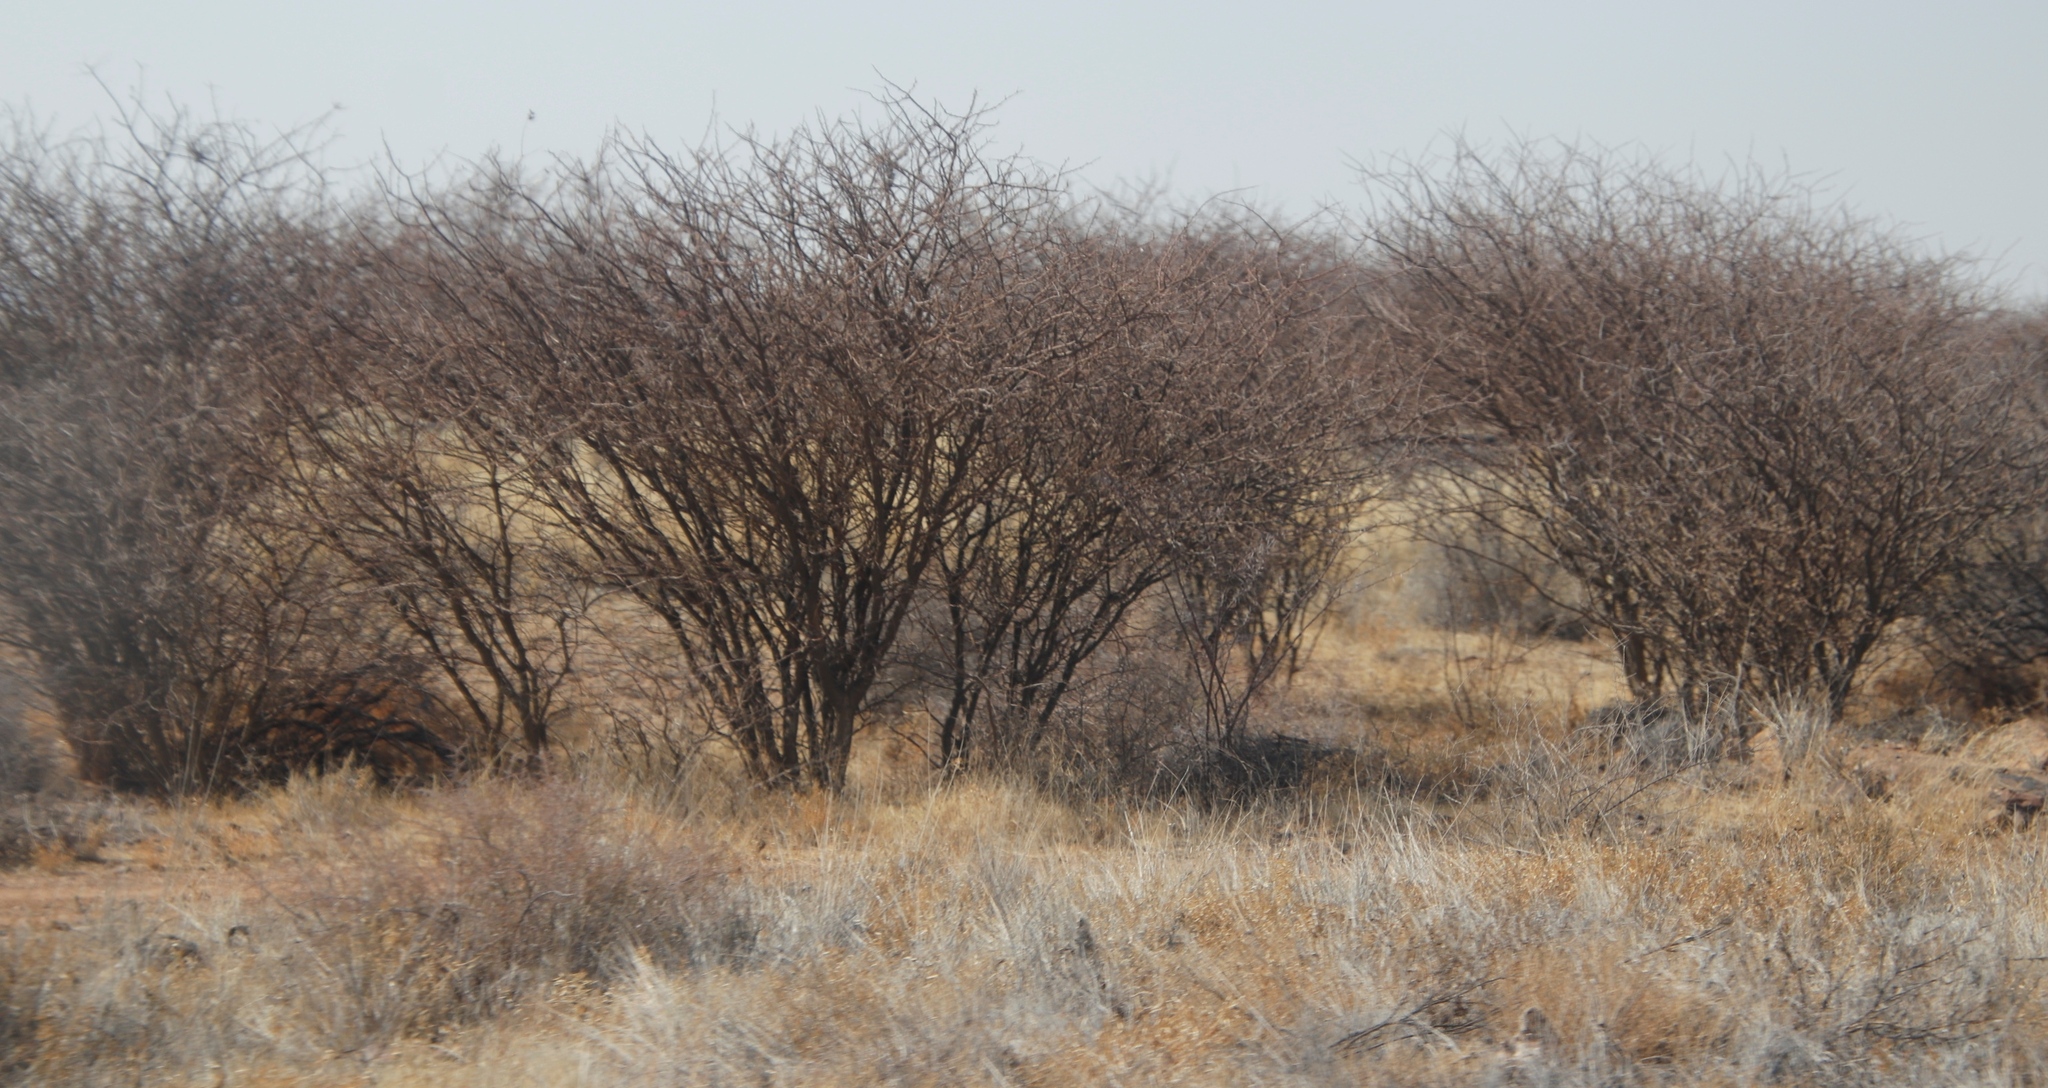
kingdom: Plantae
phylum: Tracheophyta
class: Magnoliopsida
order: Fabales
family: Fabaceae
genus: Senegalia
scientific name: Senegalia mellifera
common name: Hookthorn
